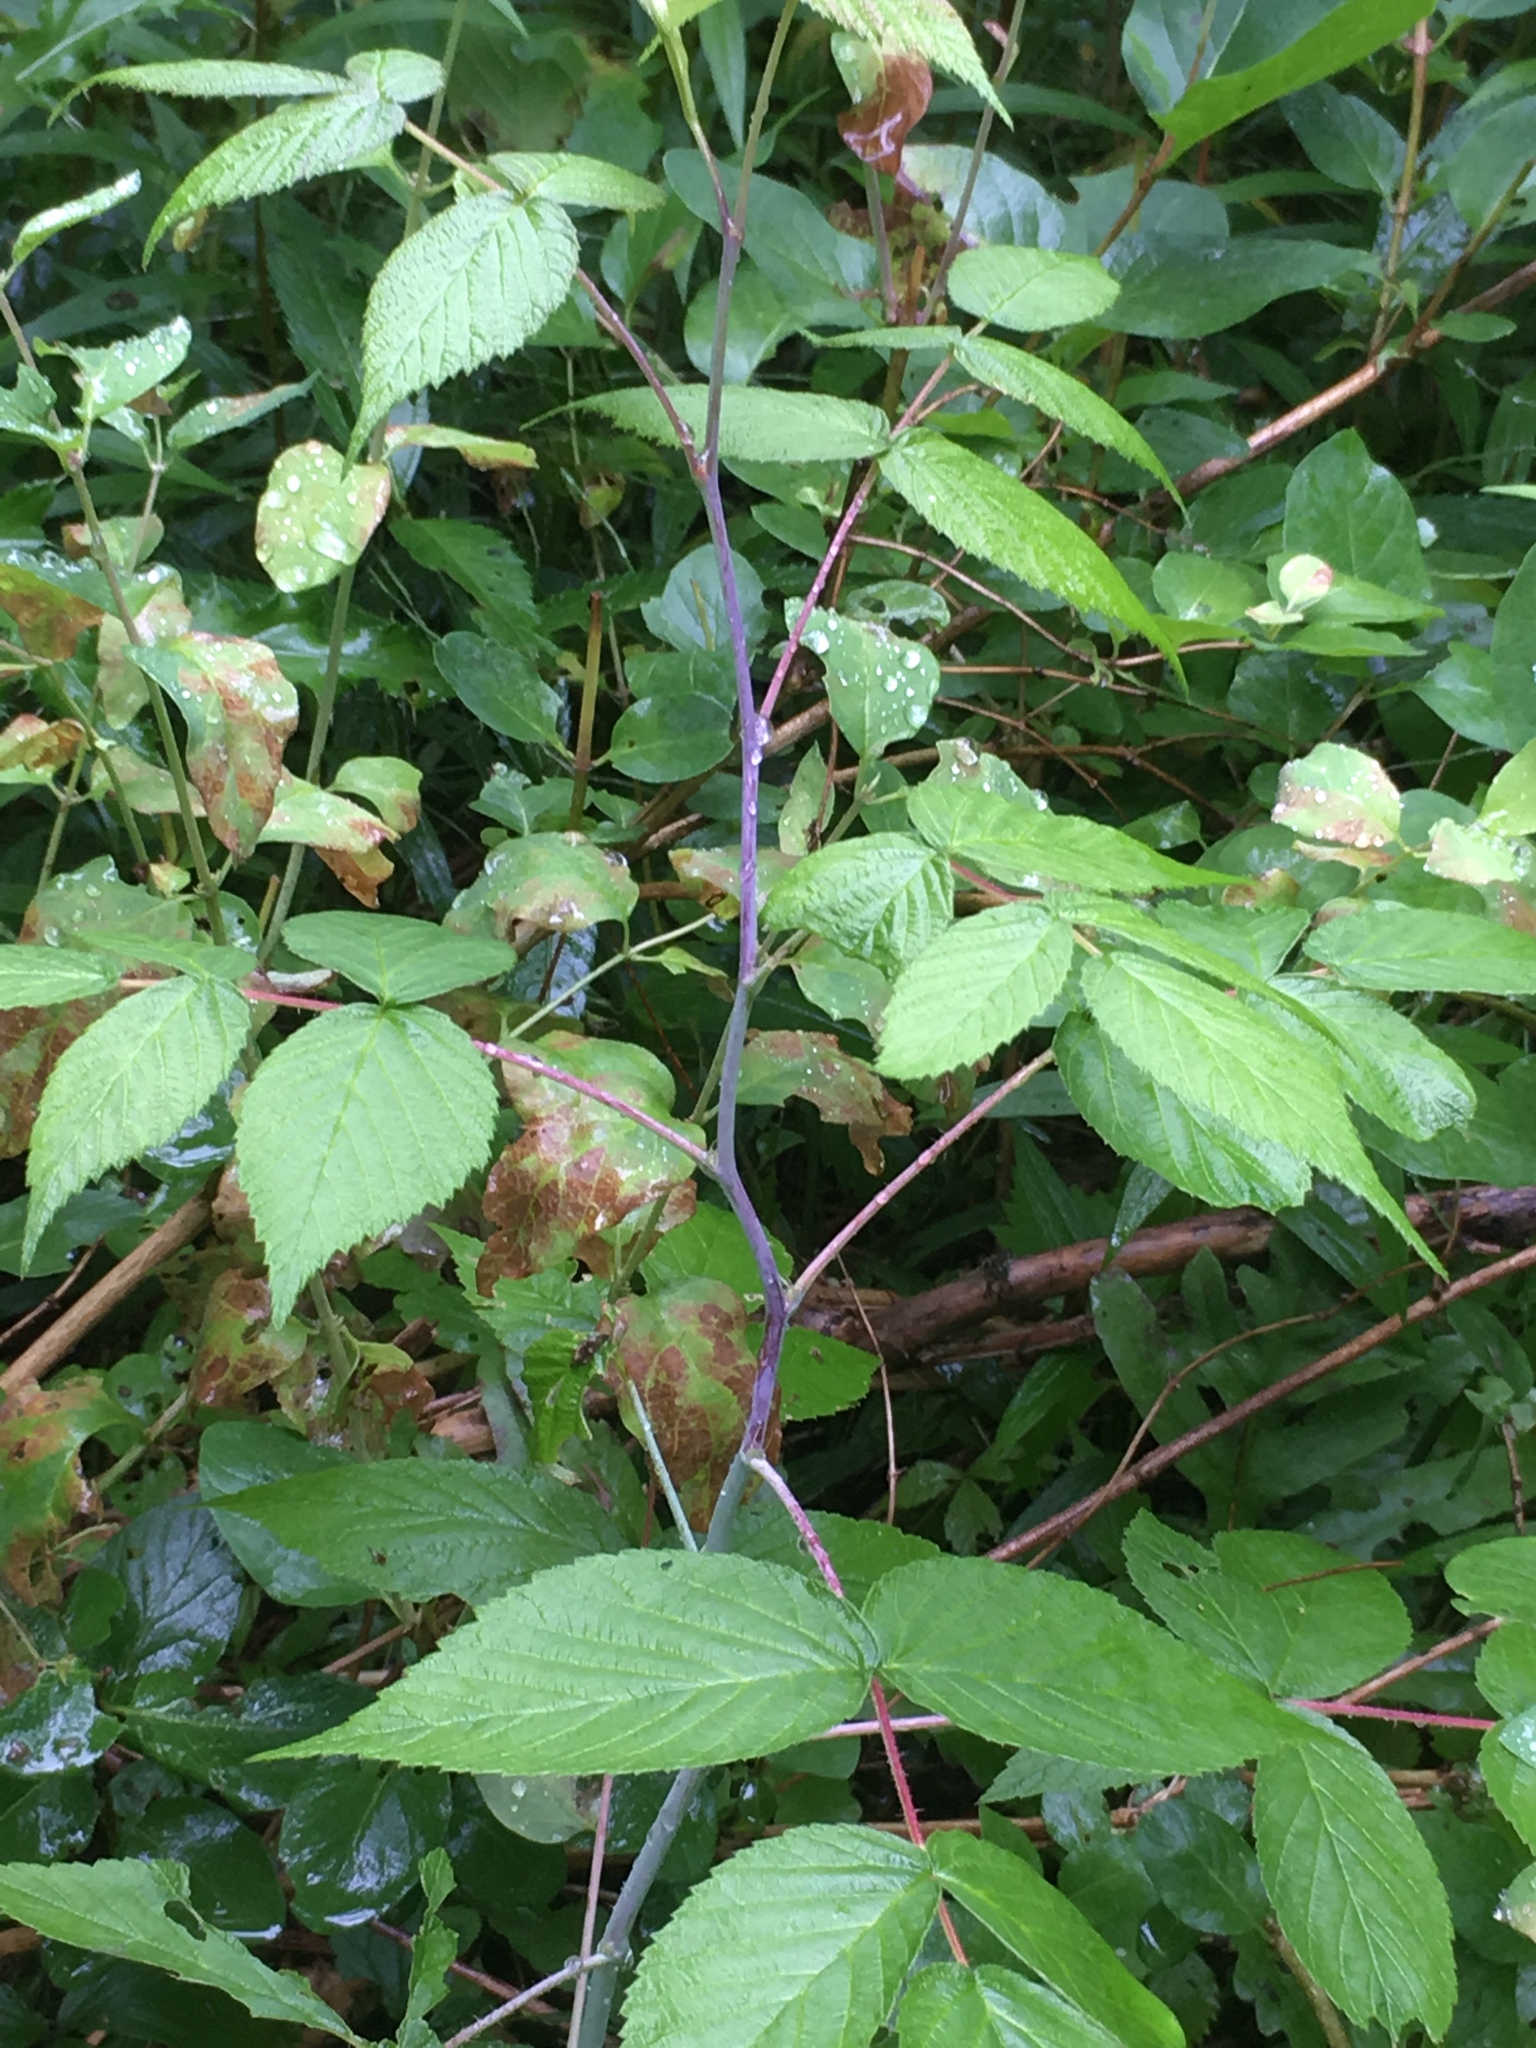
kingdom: Plantae
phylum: Tracheophyta
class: Magnoliopsida
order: Rosales
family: Rosaceae
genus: Rubus
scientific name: Rubus occidentalis
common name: Black raspberry
